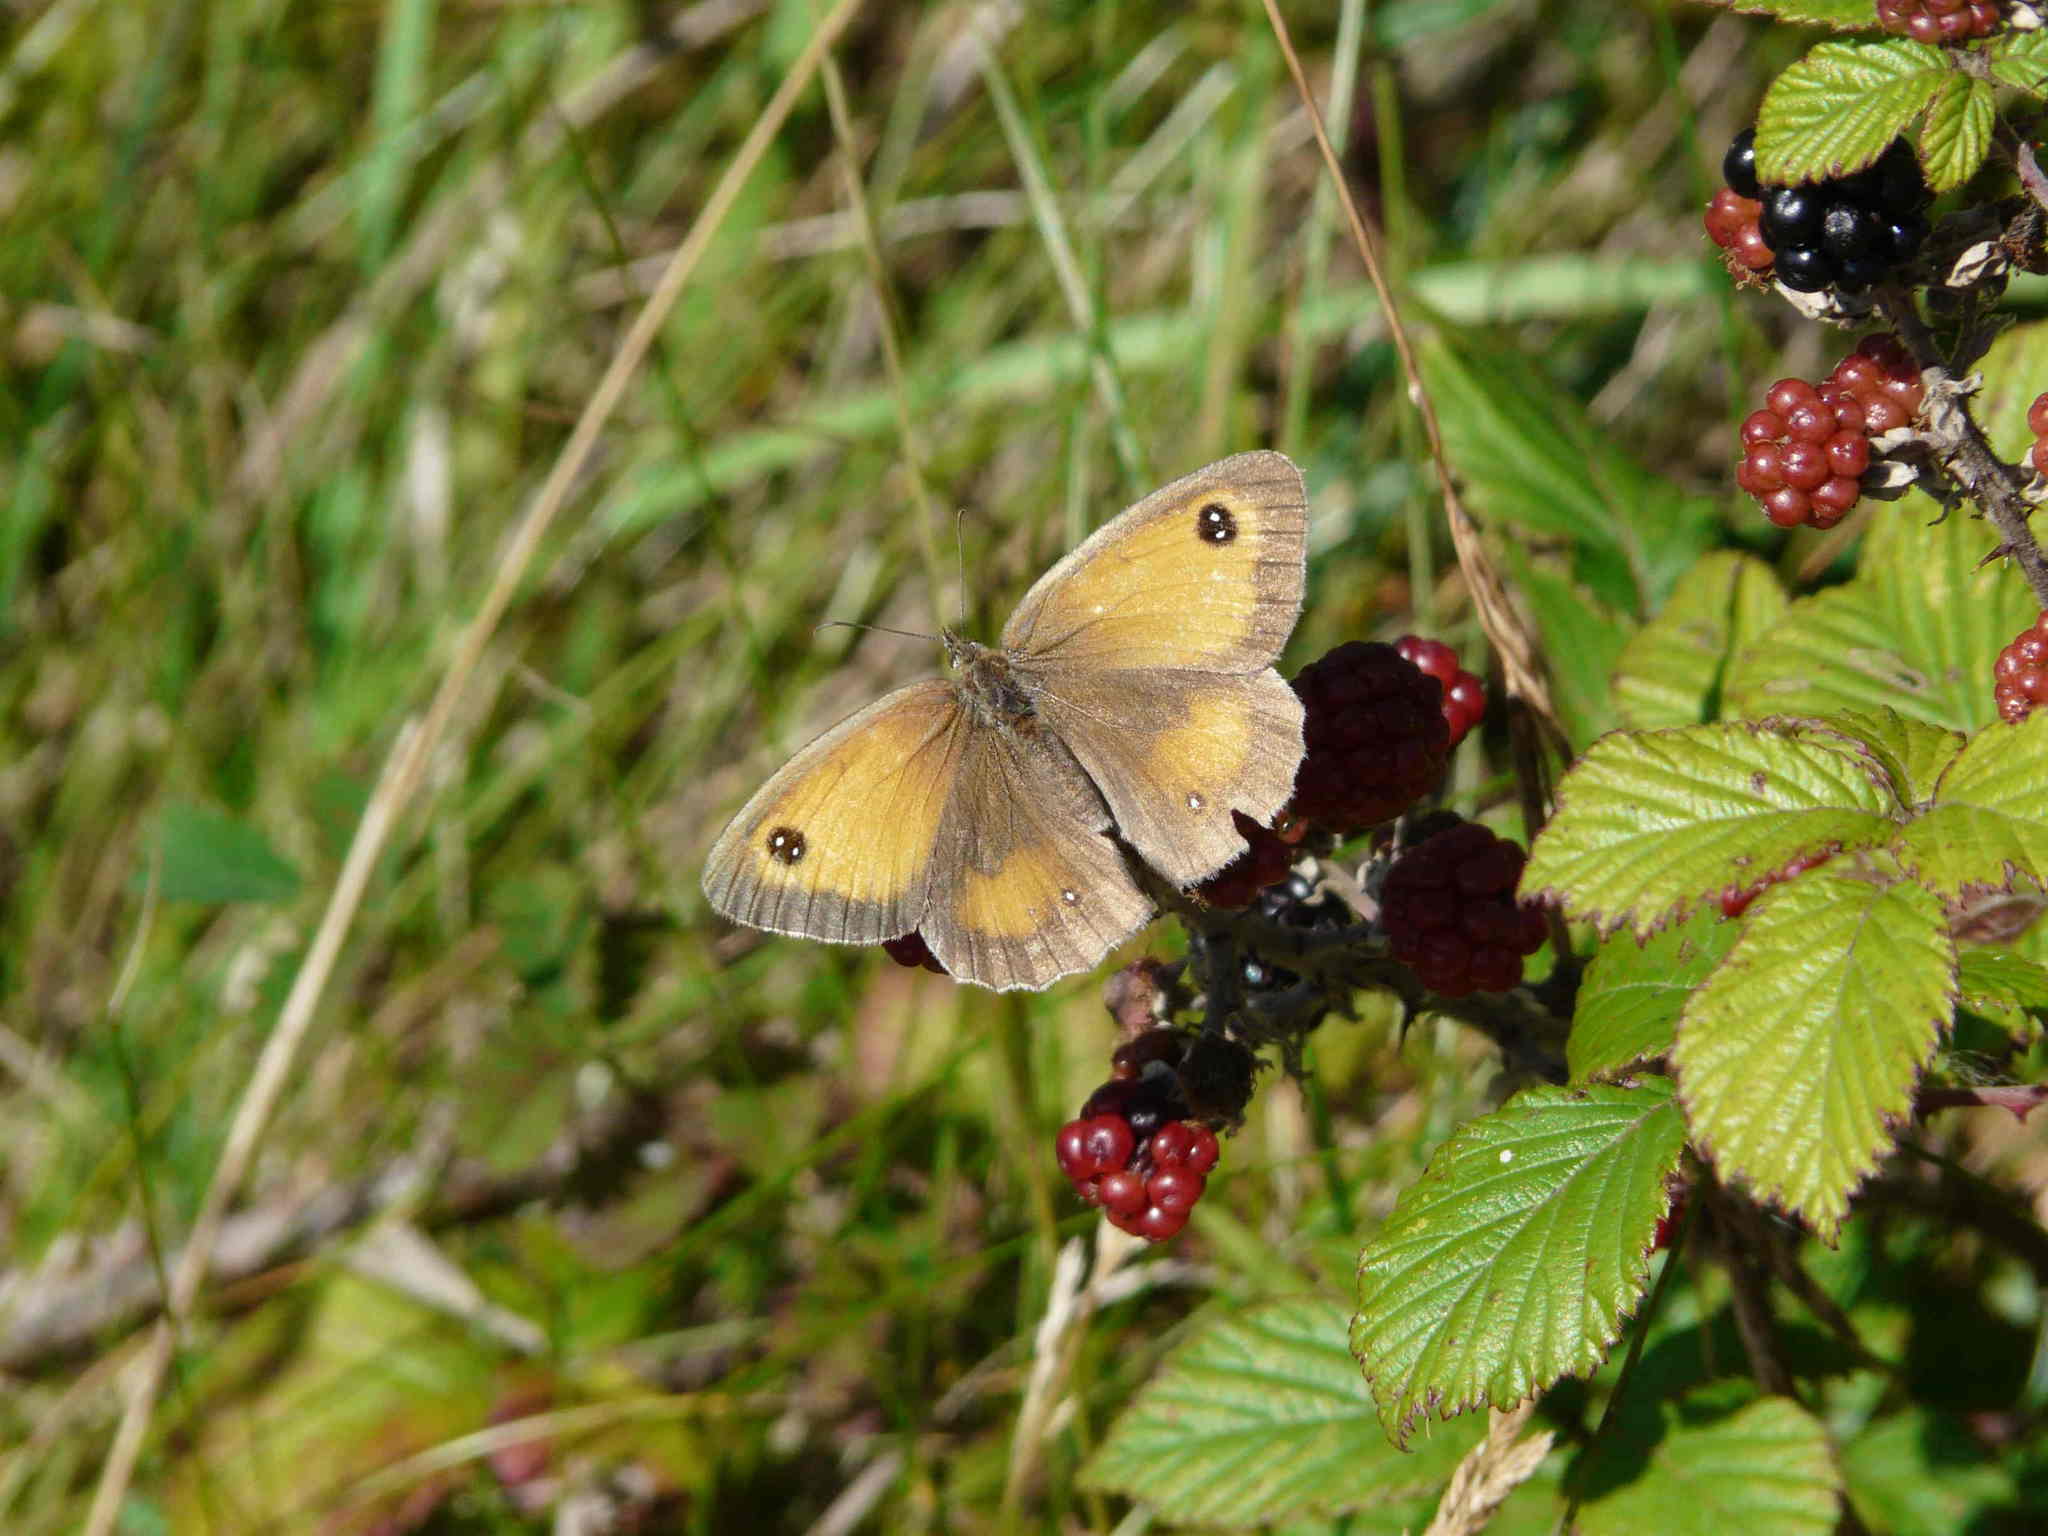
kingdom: Animalia
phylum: Arthropoda
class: Insecta
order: Lepidoptera
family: Nymphalidae
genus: Pyronia
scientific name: Pyronia tithonus
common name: Gatekeeper
